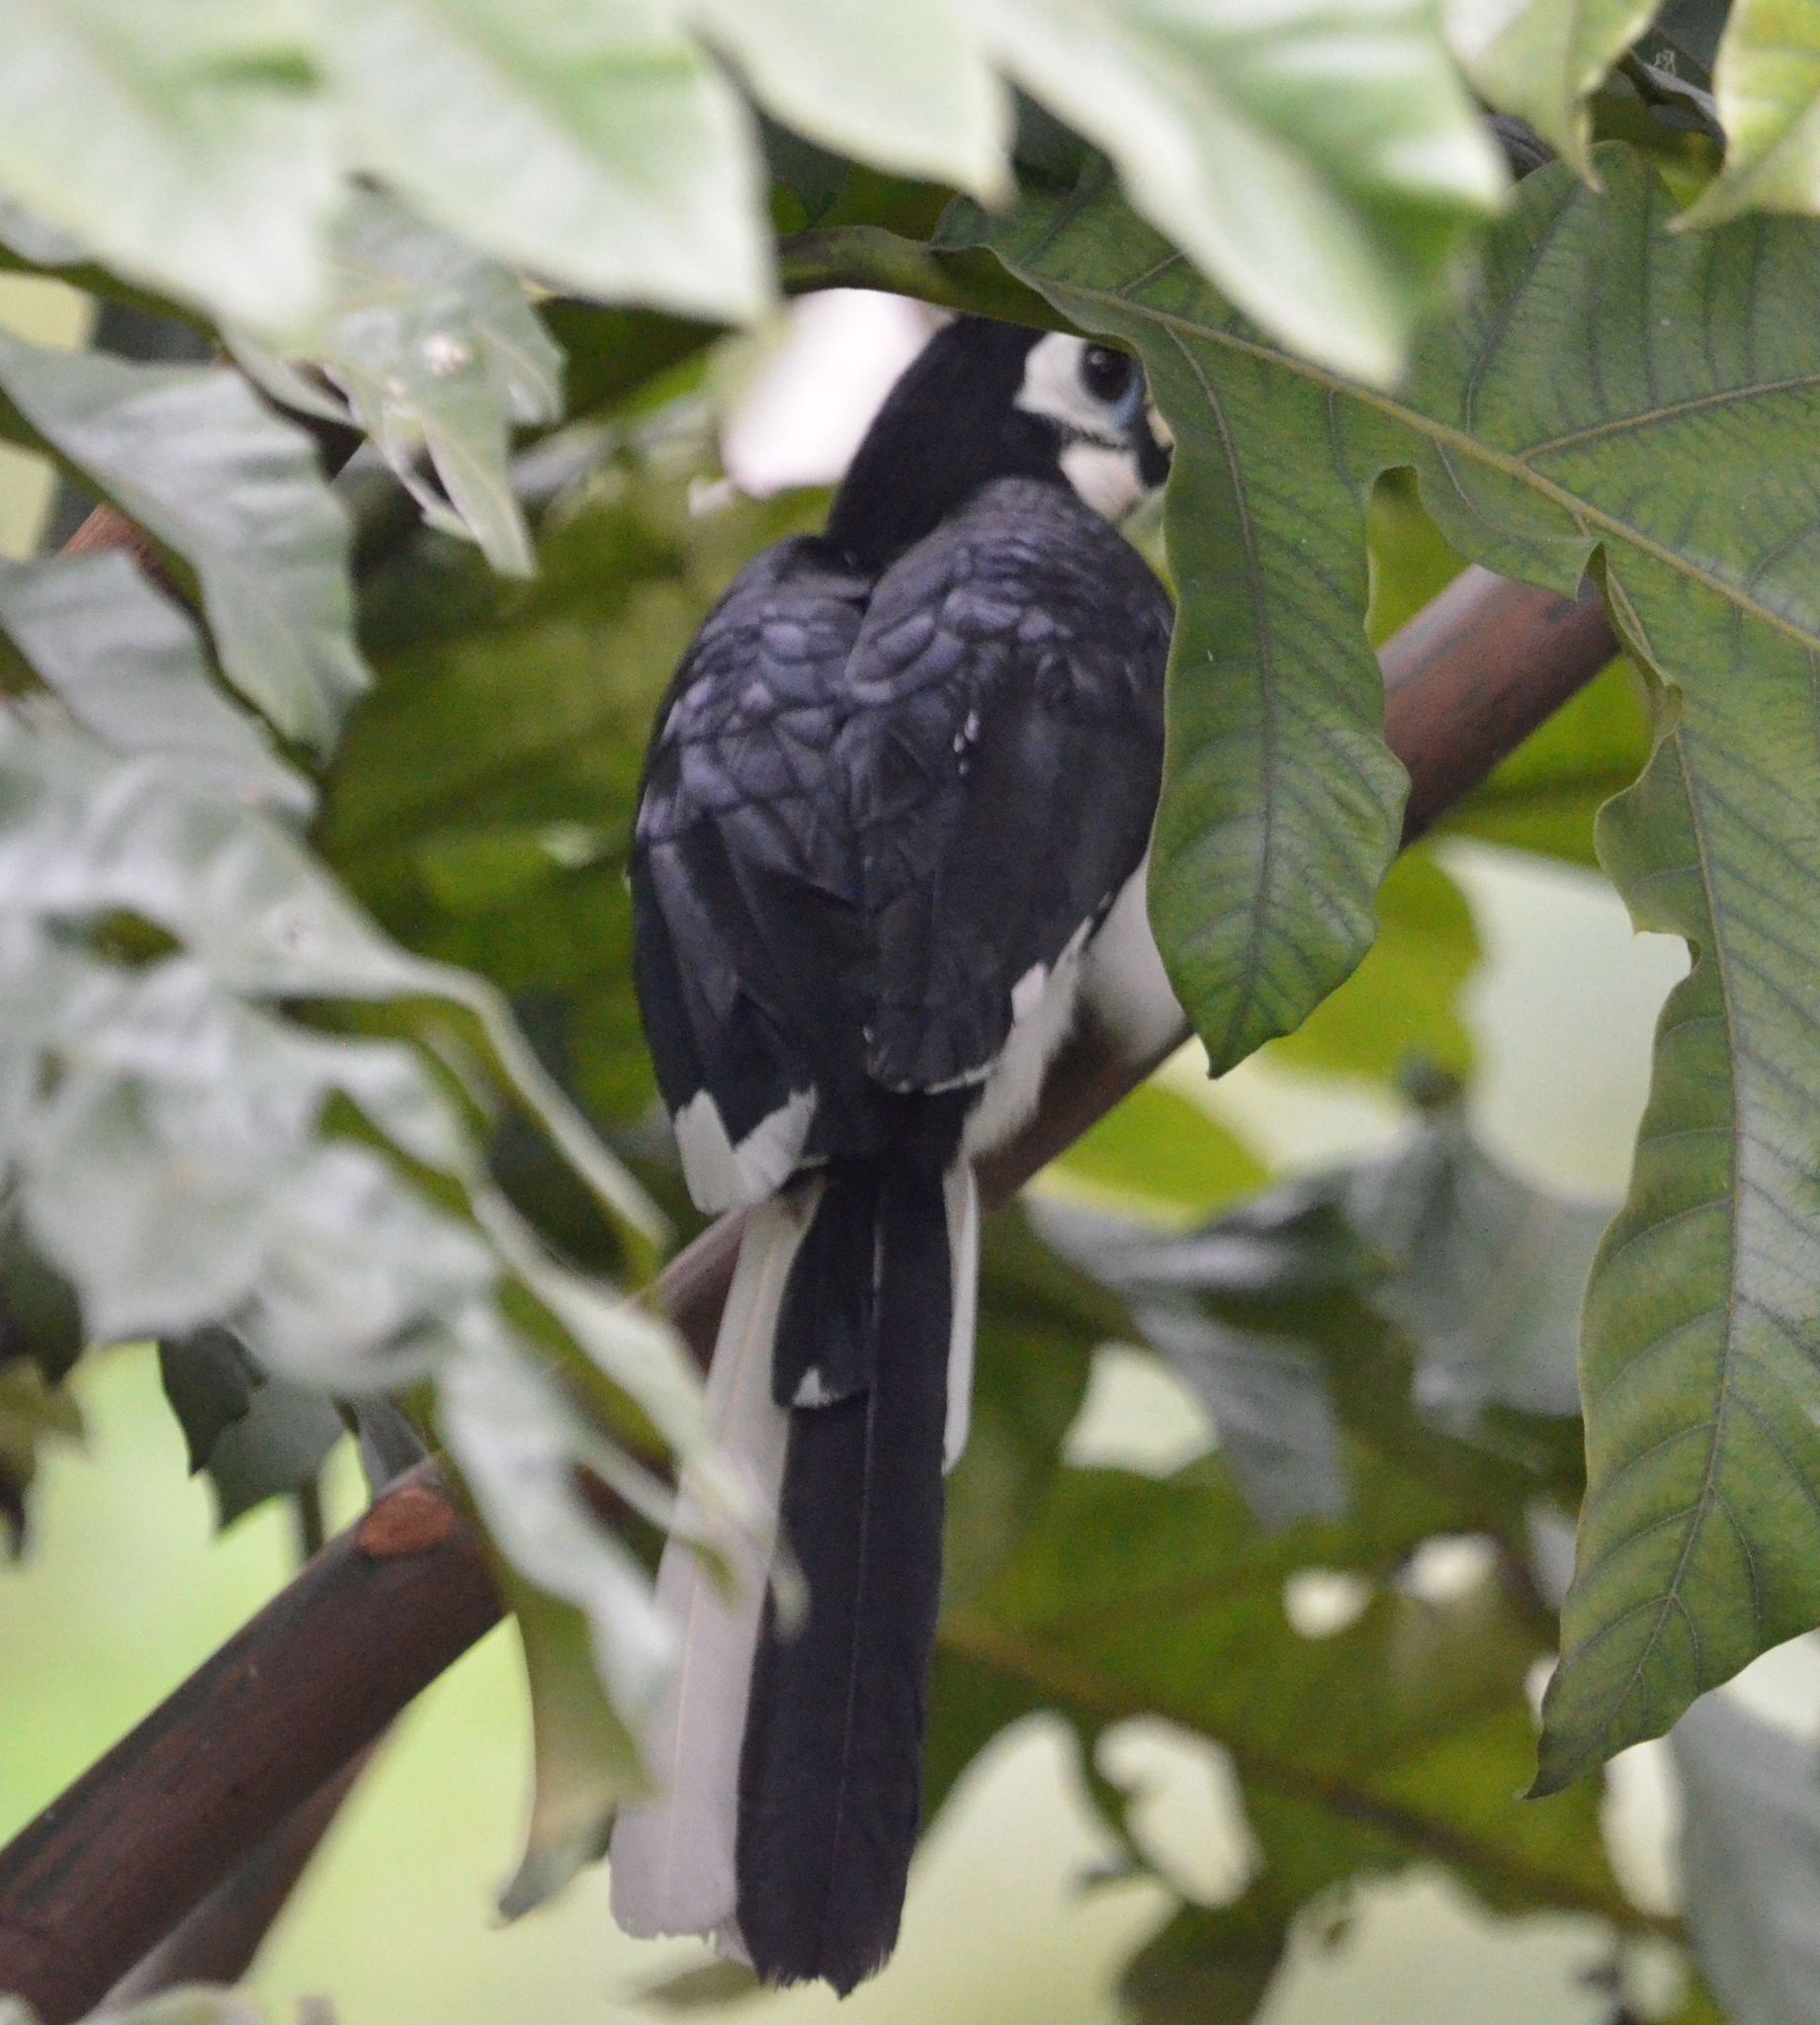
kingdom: Animalia
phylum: Chordata
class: Aves
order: Bucerotiformes
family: Bucerotidae
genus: Anthracoceros
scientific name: Anthracoceros albirostris
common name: Oriental pied-hornbill
